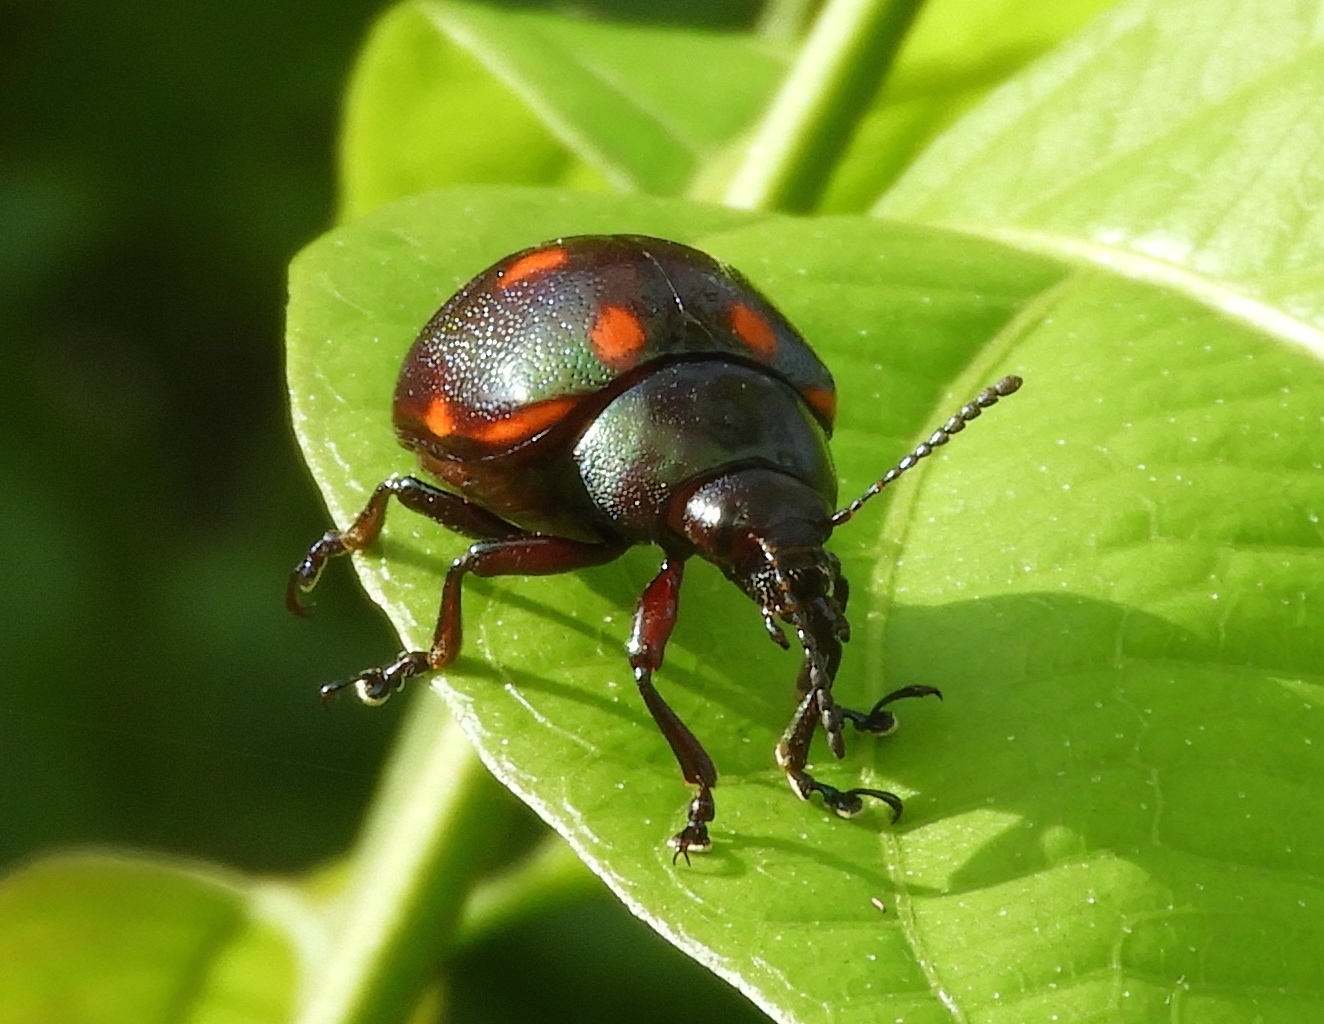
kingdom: Animalia
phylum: Arthropoda
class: Insecta
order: Coleoptera
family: Chrysomelidae
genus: Leptinotarsa
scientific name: Leptinotarsa behrensi
